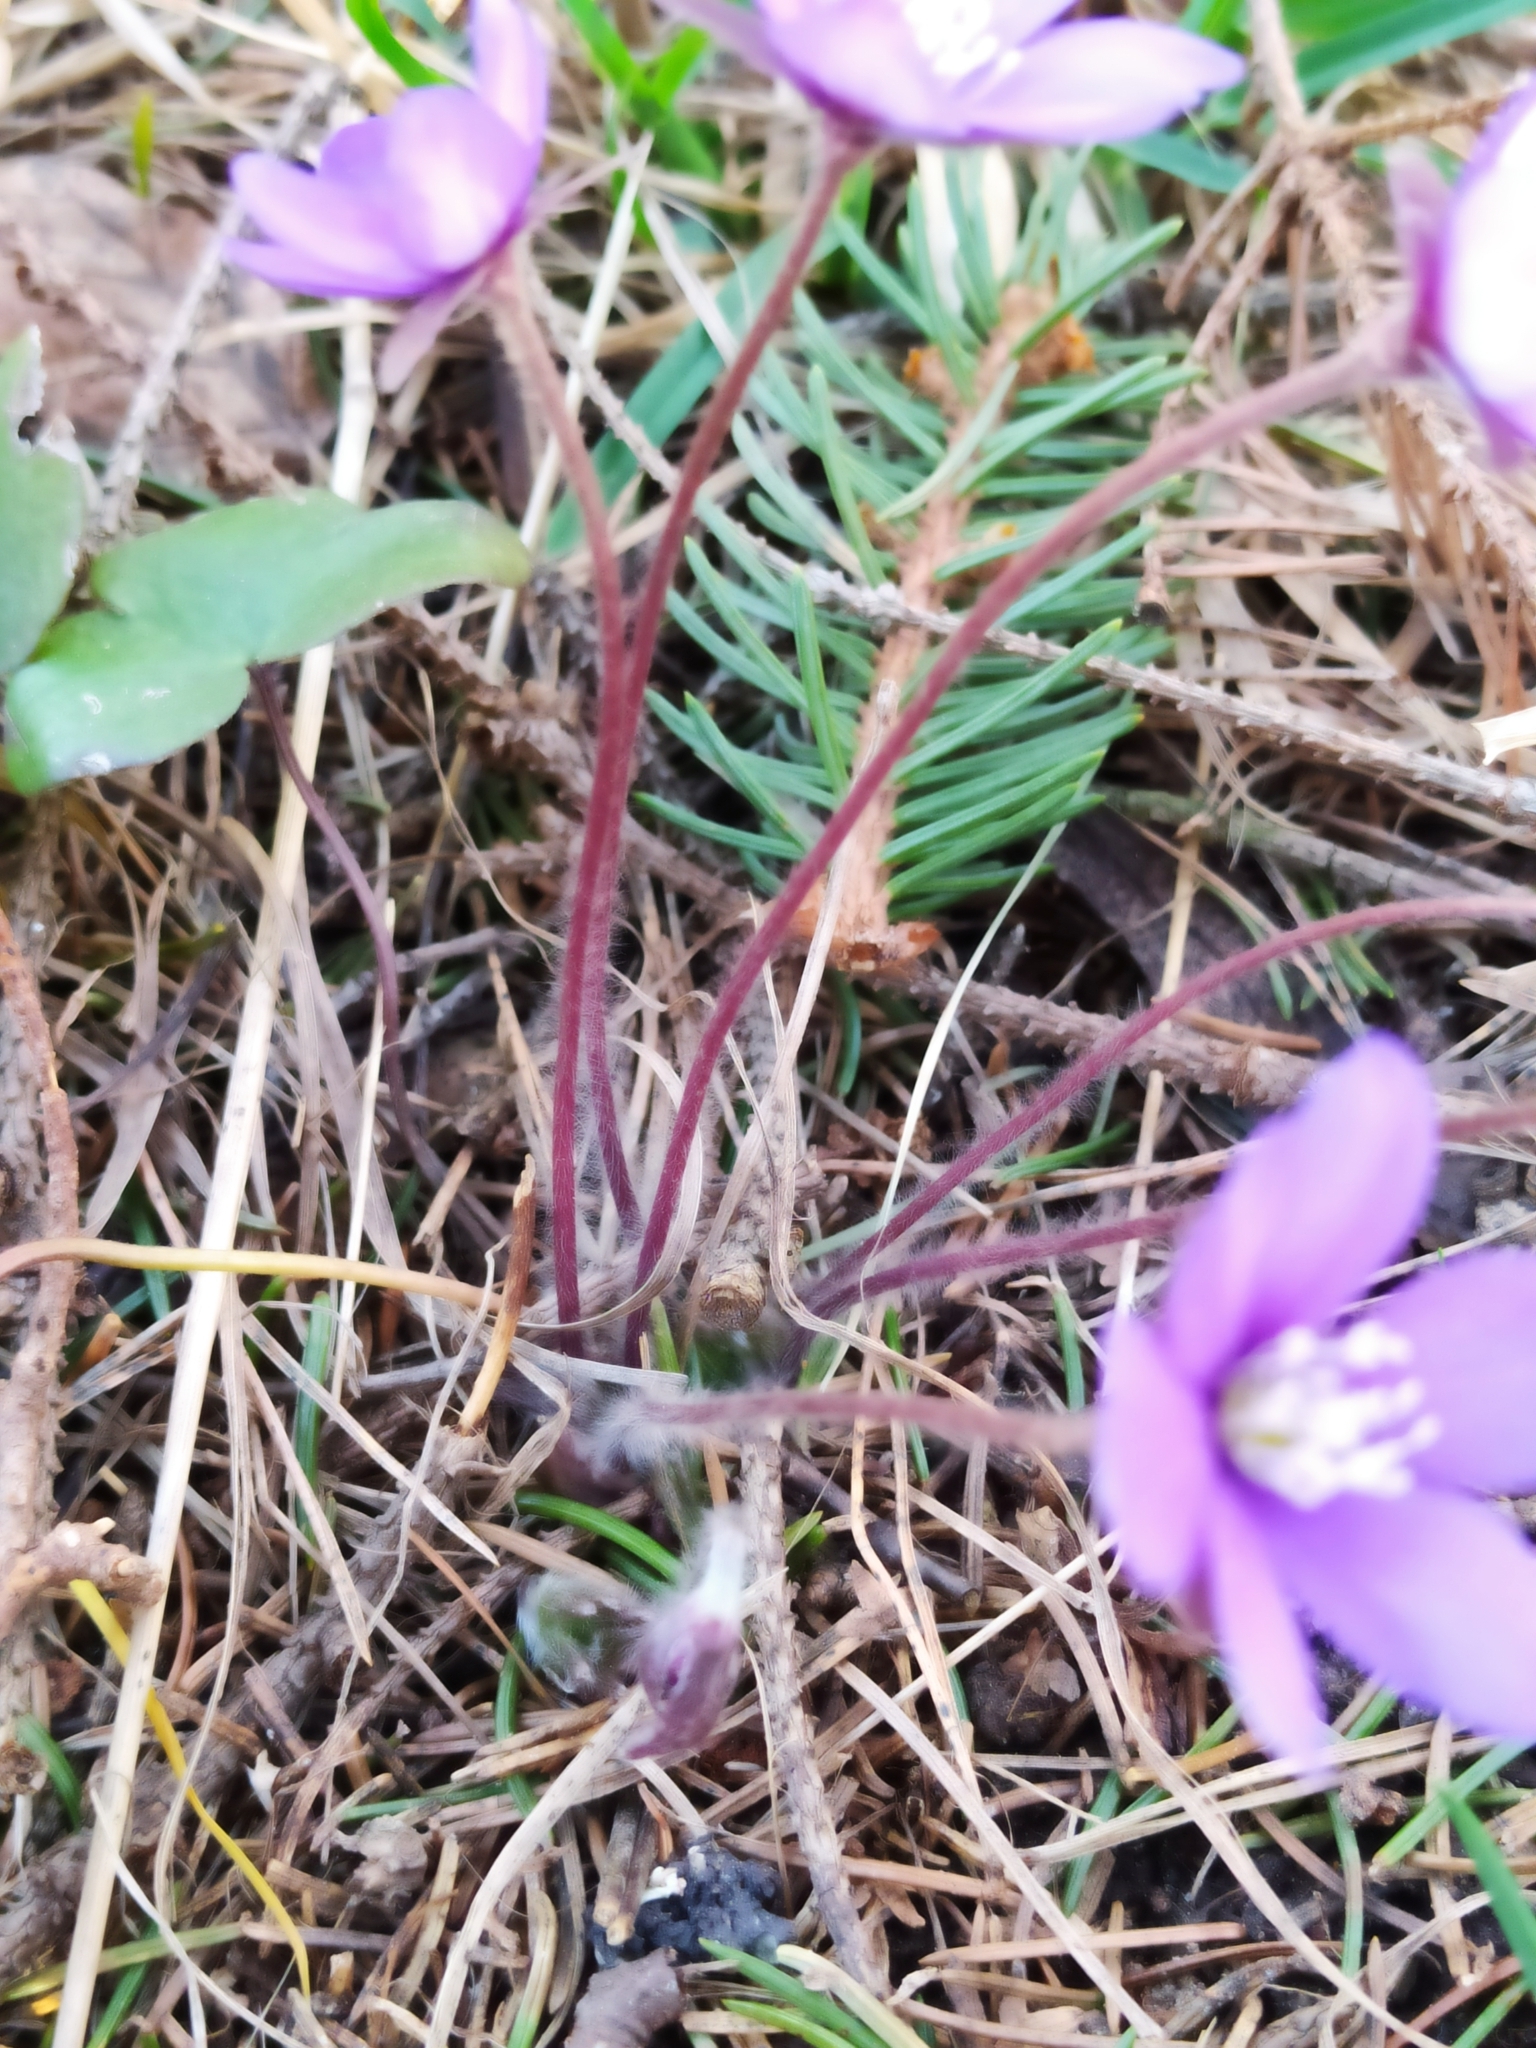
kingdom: Plantae
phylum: Tracheophyta
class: Magnoliopsida
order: Ranunculales
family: Ranunculaceae
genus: Hepatica
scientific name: Hepatica nobilis
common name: Liverleaf
